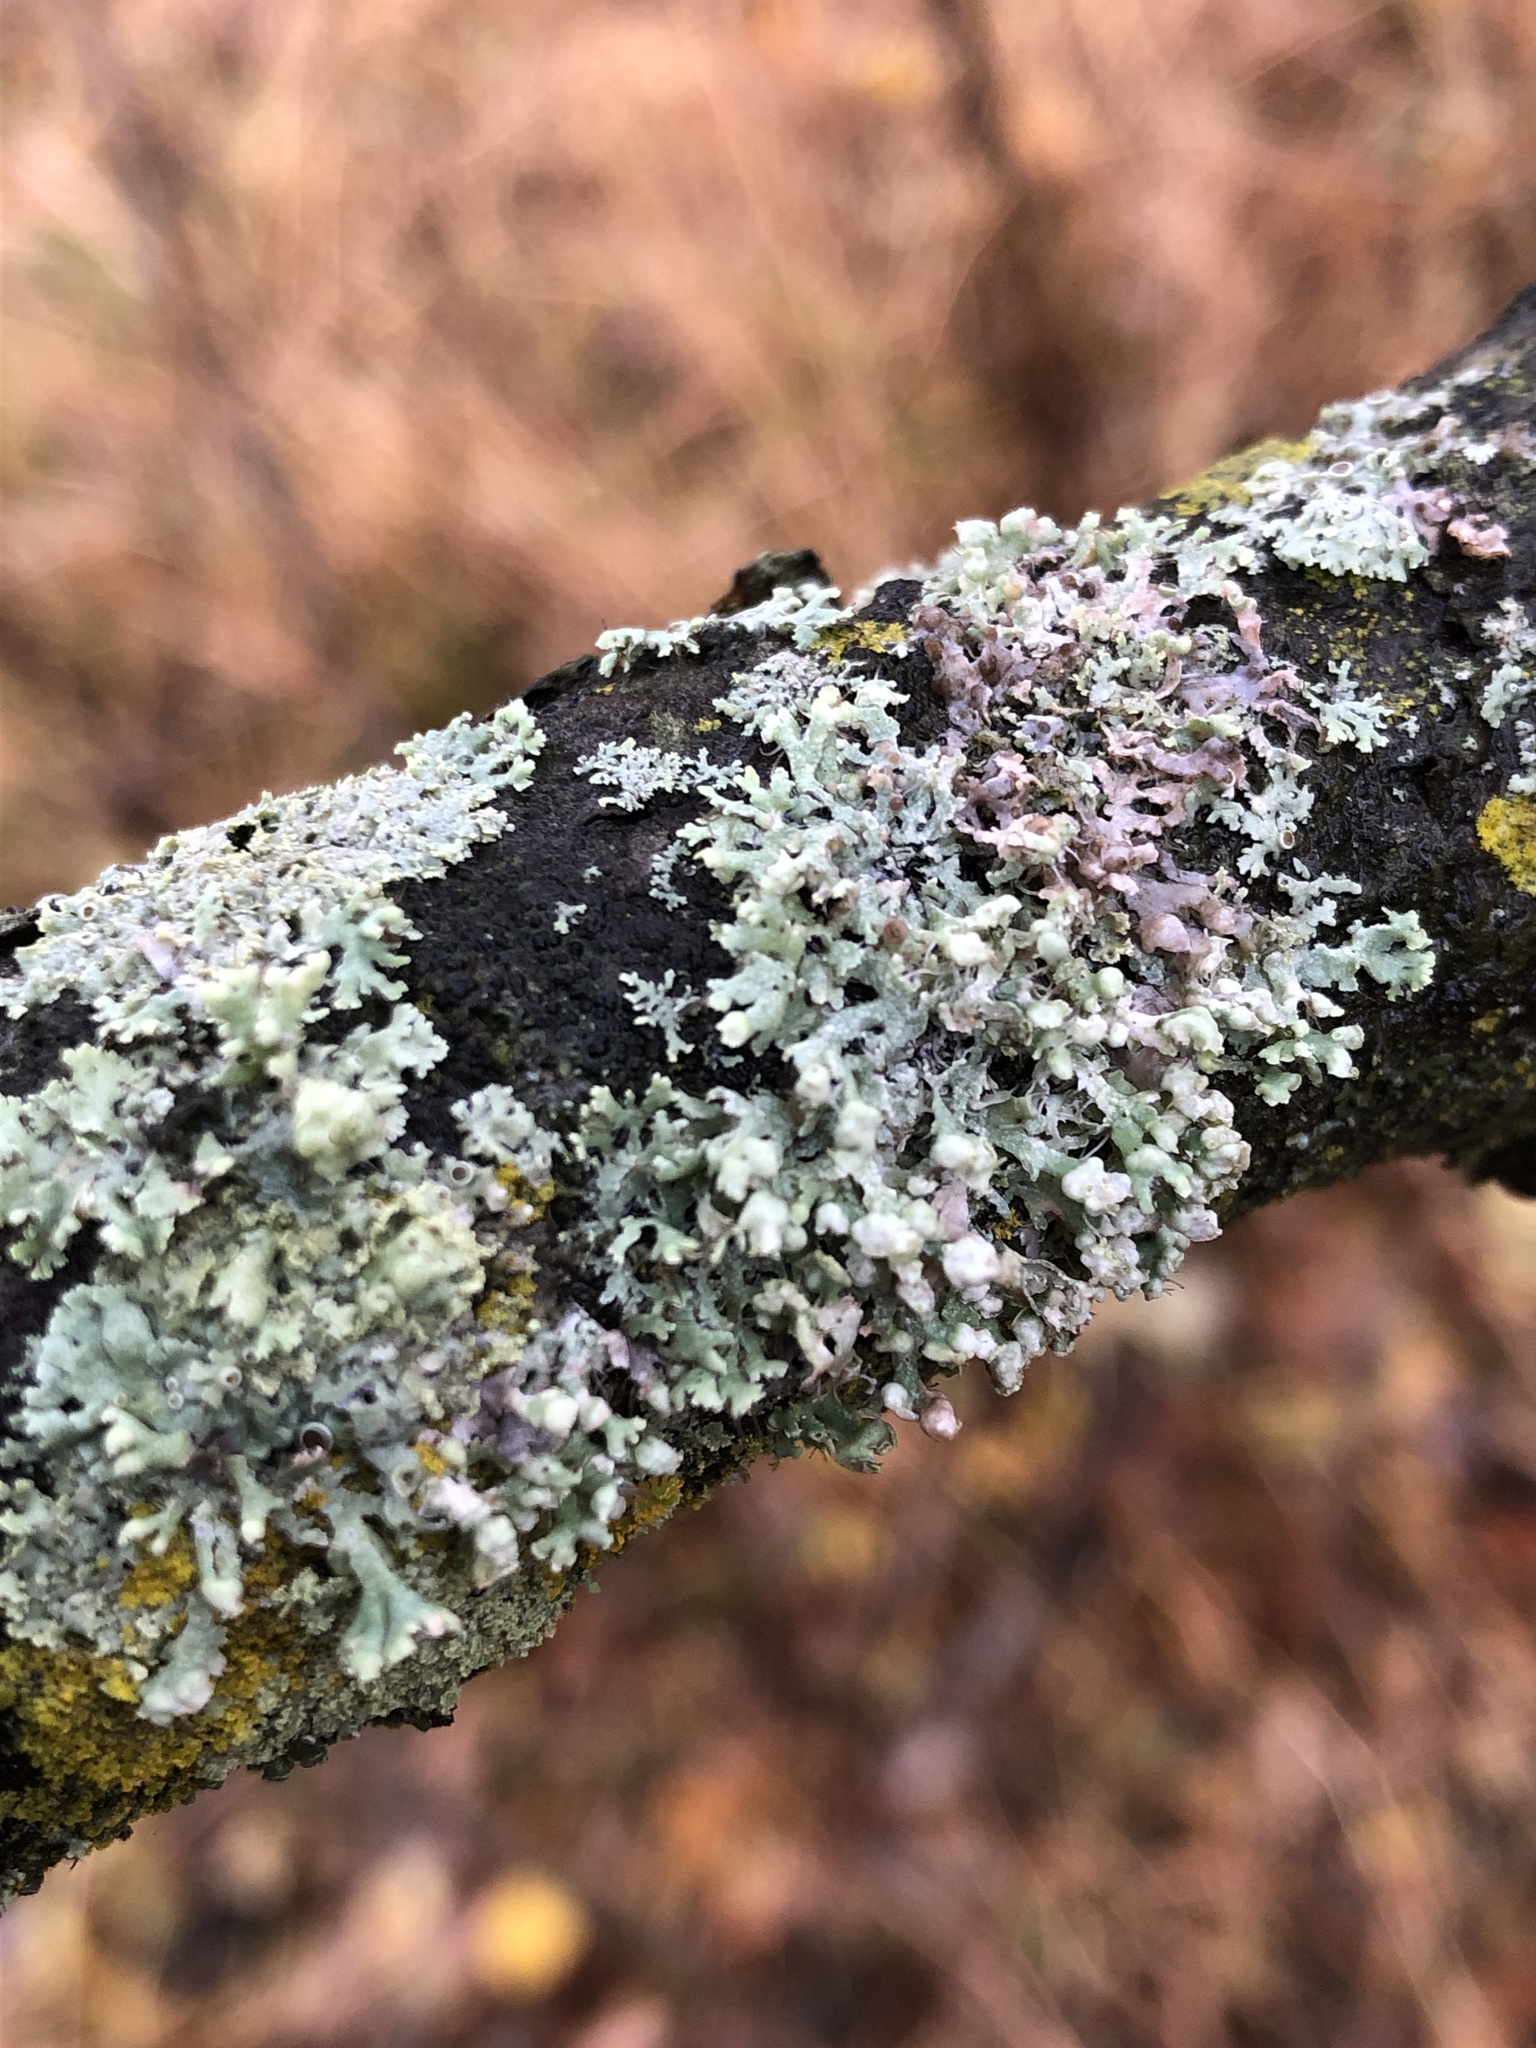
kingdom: Fungi
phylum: Ascomycota
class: Lecanoromycetes
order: Caliciales
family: Physciaceae
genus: Physcia
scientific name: Physcia adscendens
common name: Hooded rosette lichen
